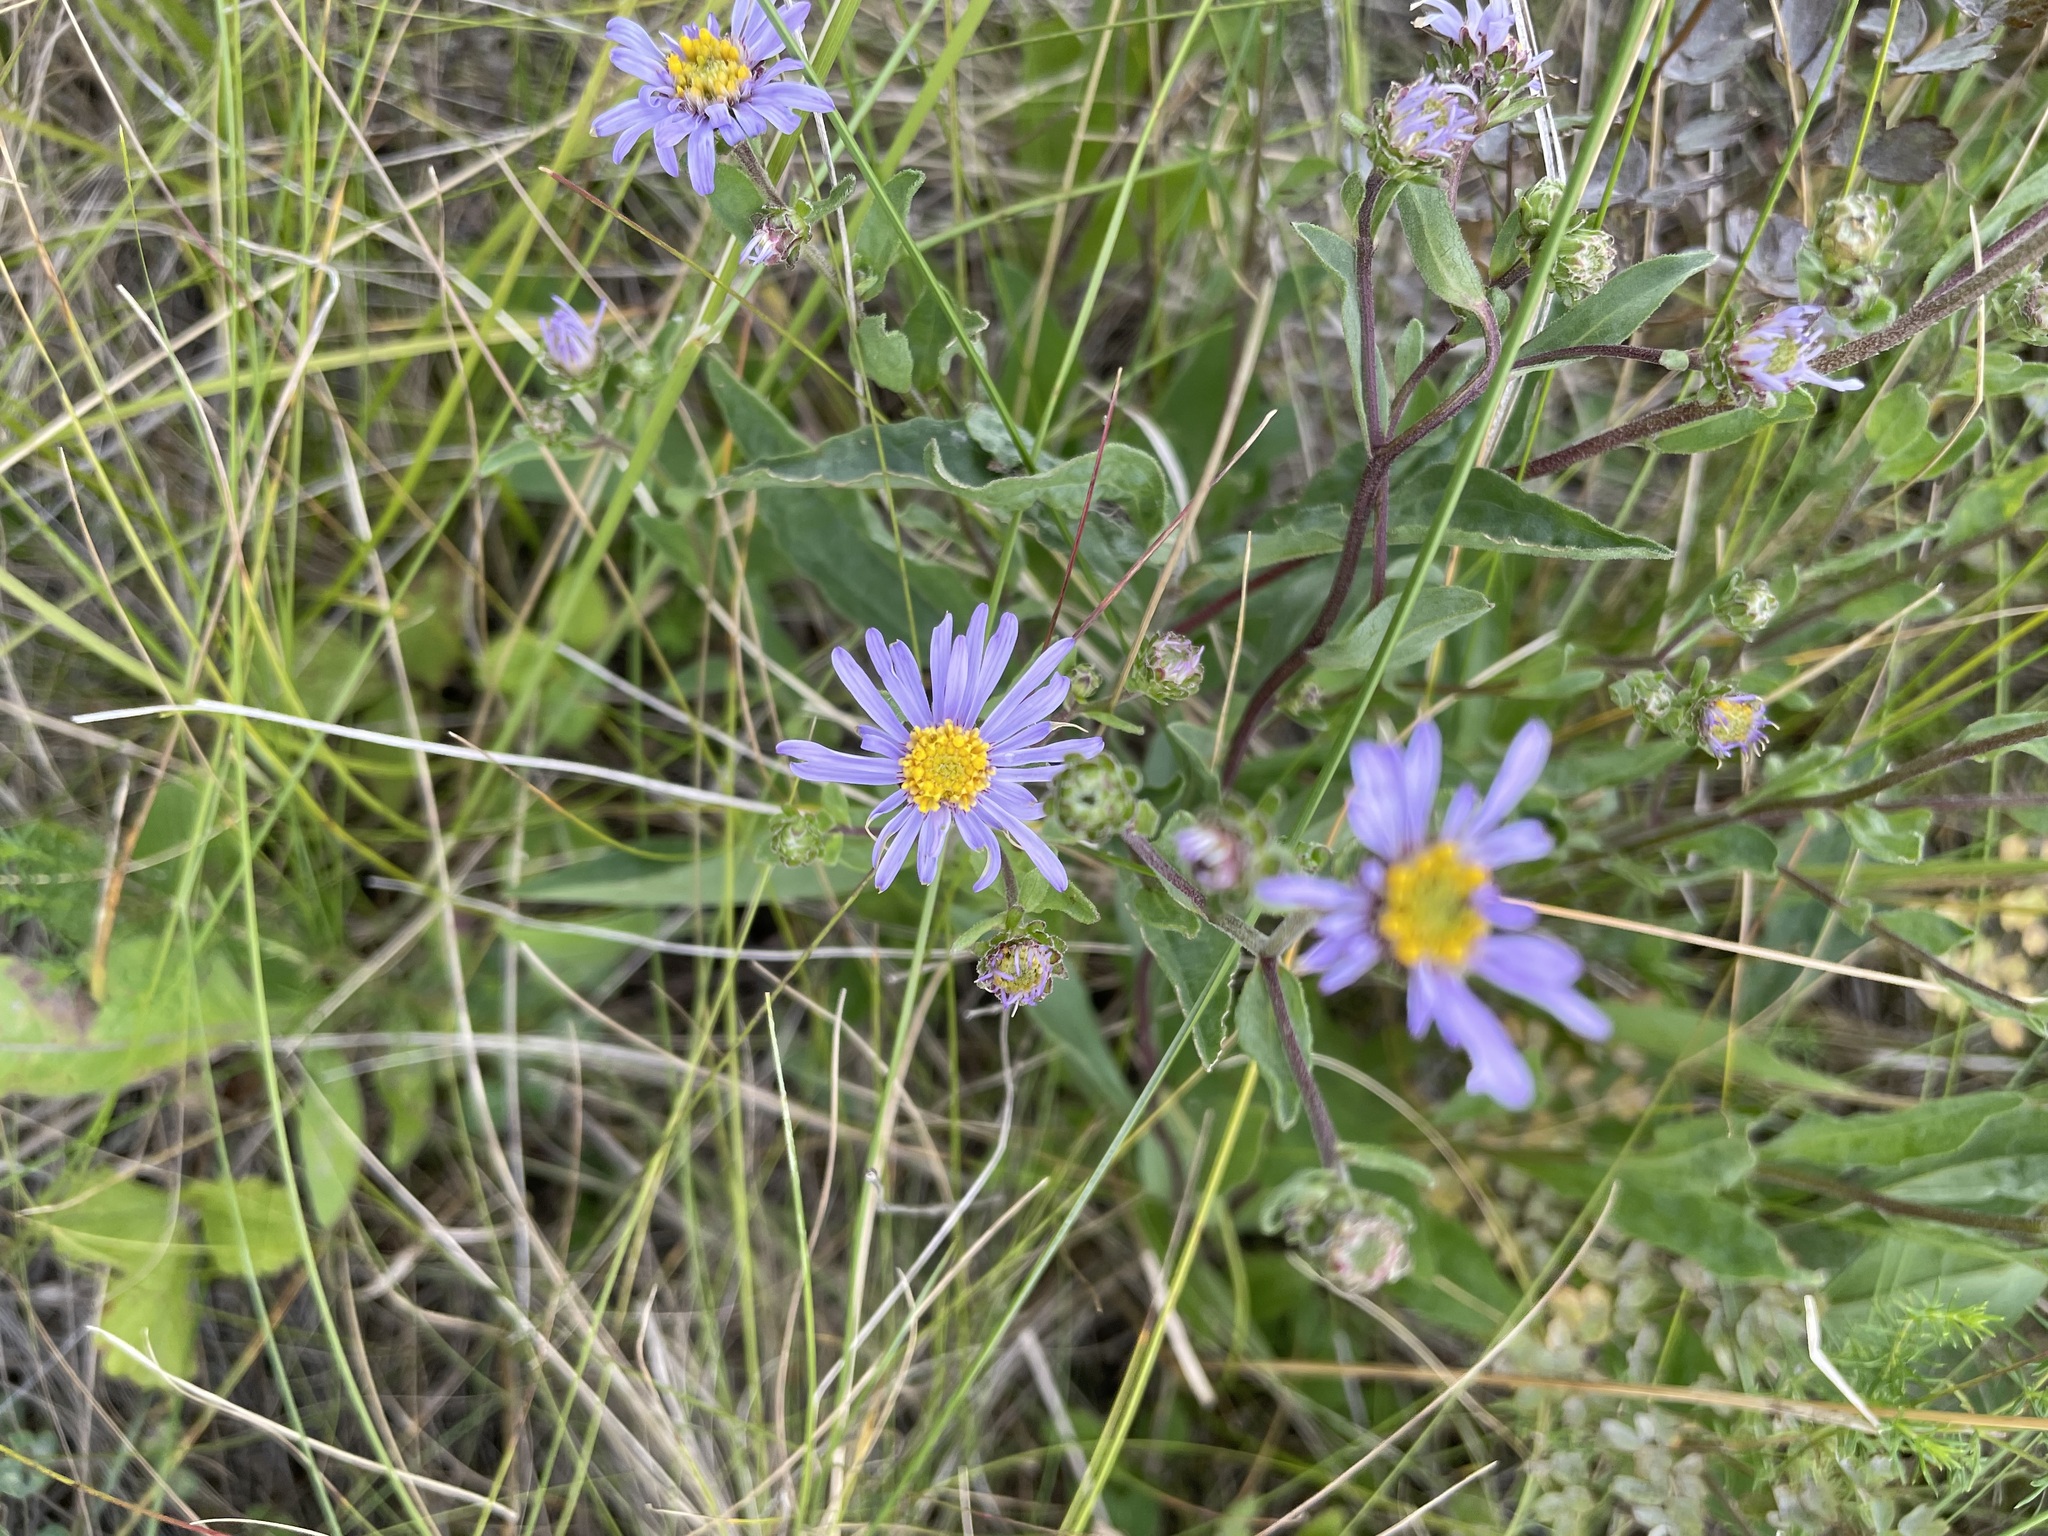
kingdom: Plantae
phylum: Tracheophyta
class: Magnoliopsida
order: Asterales
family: Asteraceae
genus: Aster
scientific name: Aster amellus
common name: European michaelmas daisy
